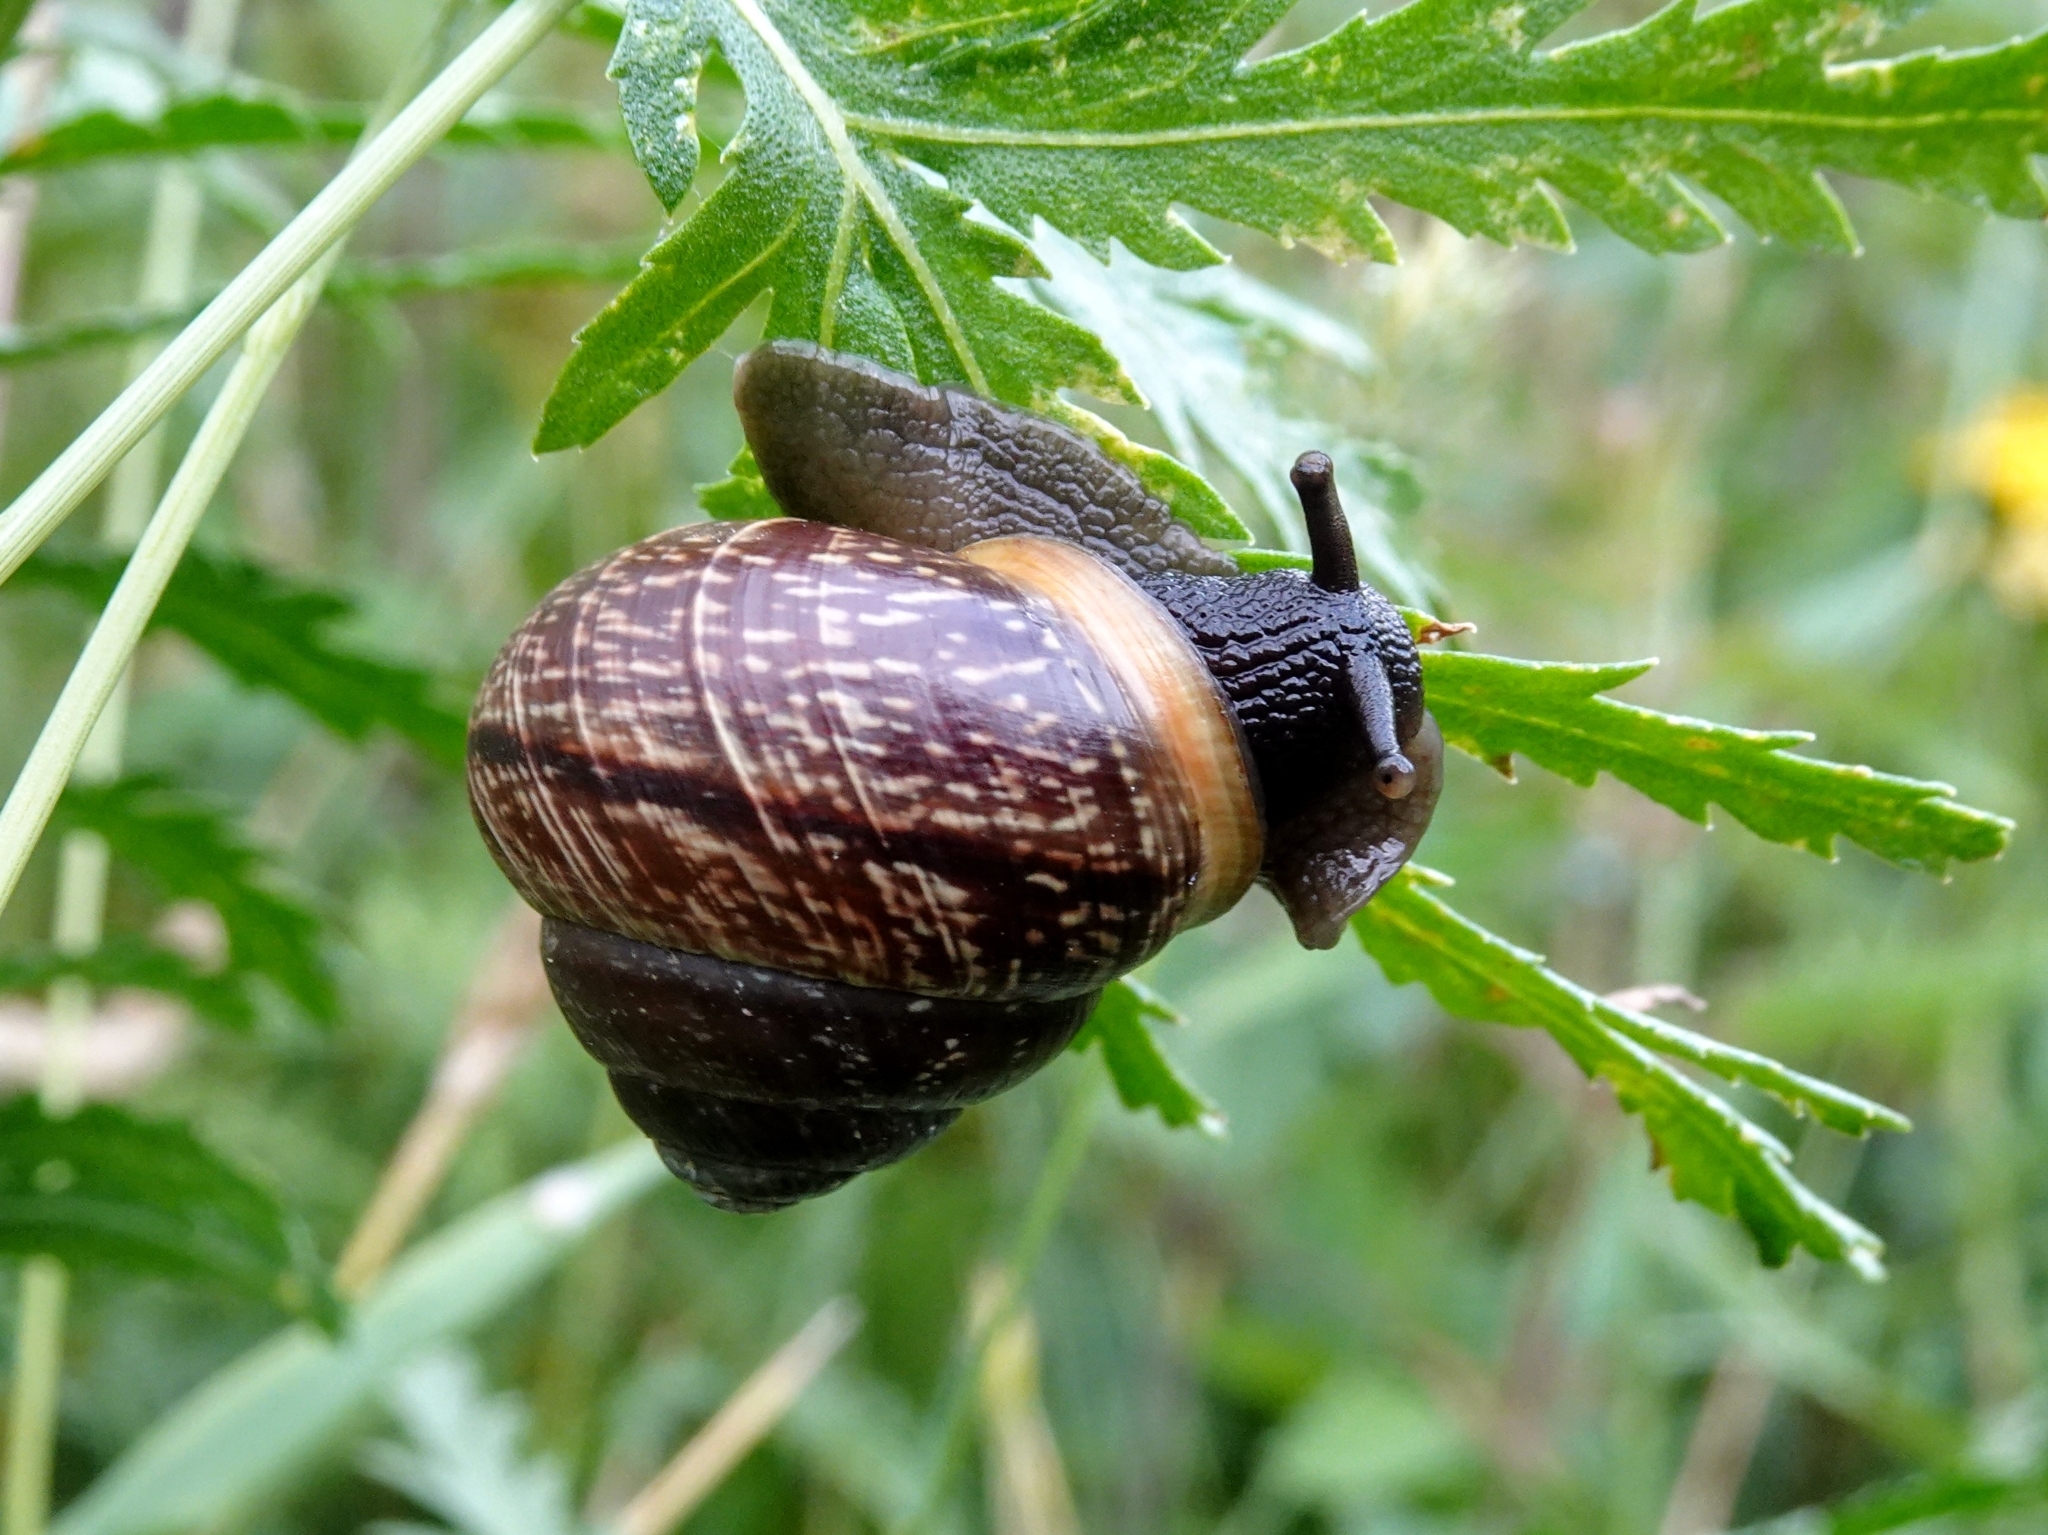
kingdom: Animalia
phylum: Mollusca
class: Gastropoda
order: Stylommatophora
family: Helicidae
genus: Arianta
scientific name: Arianta arbustorum
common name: Copse snail
